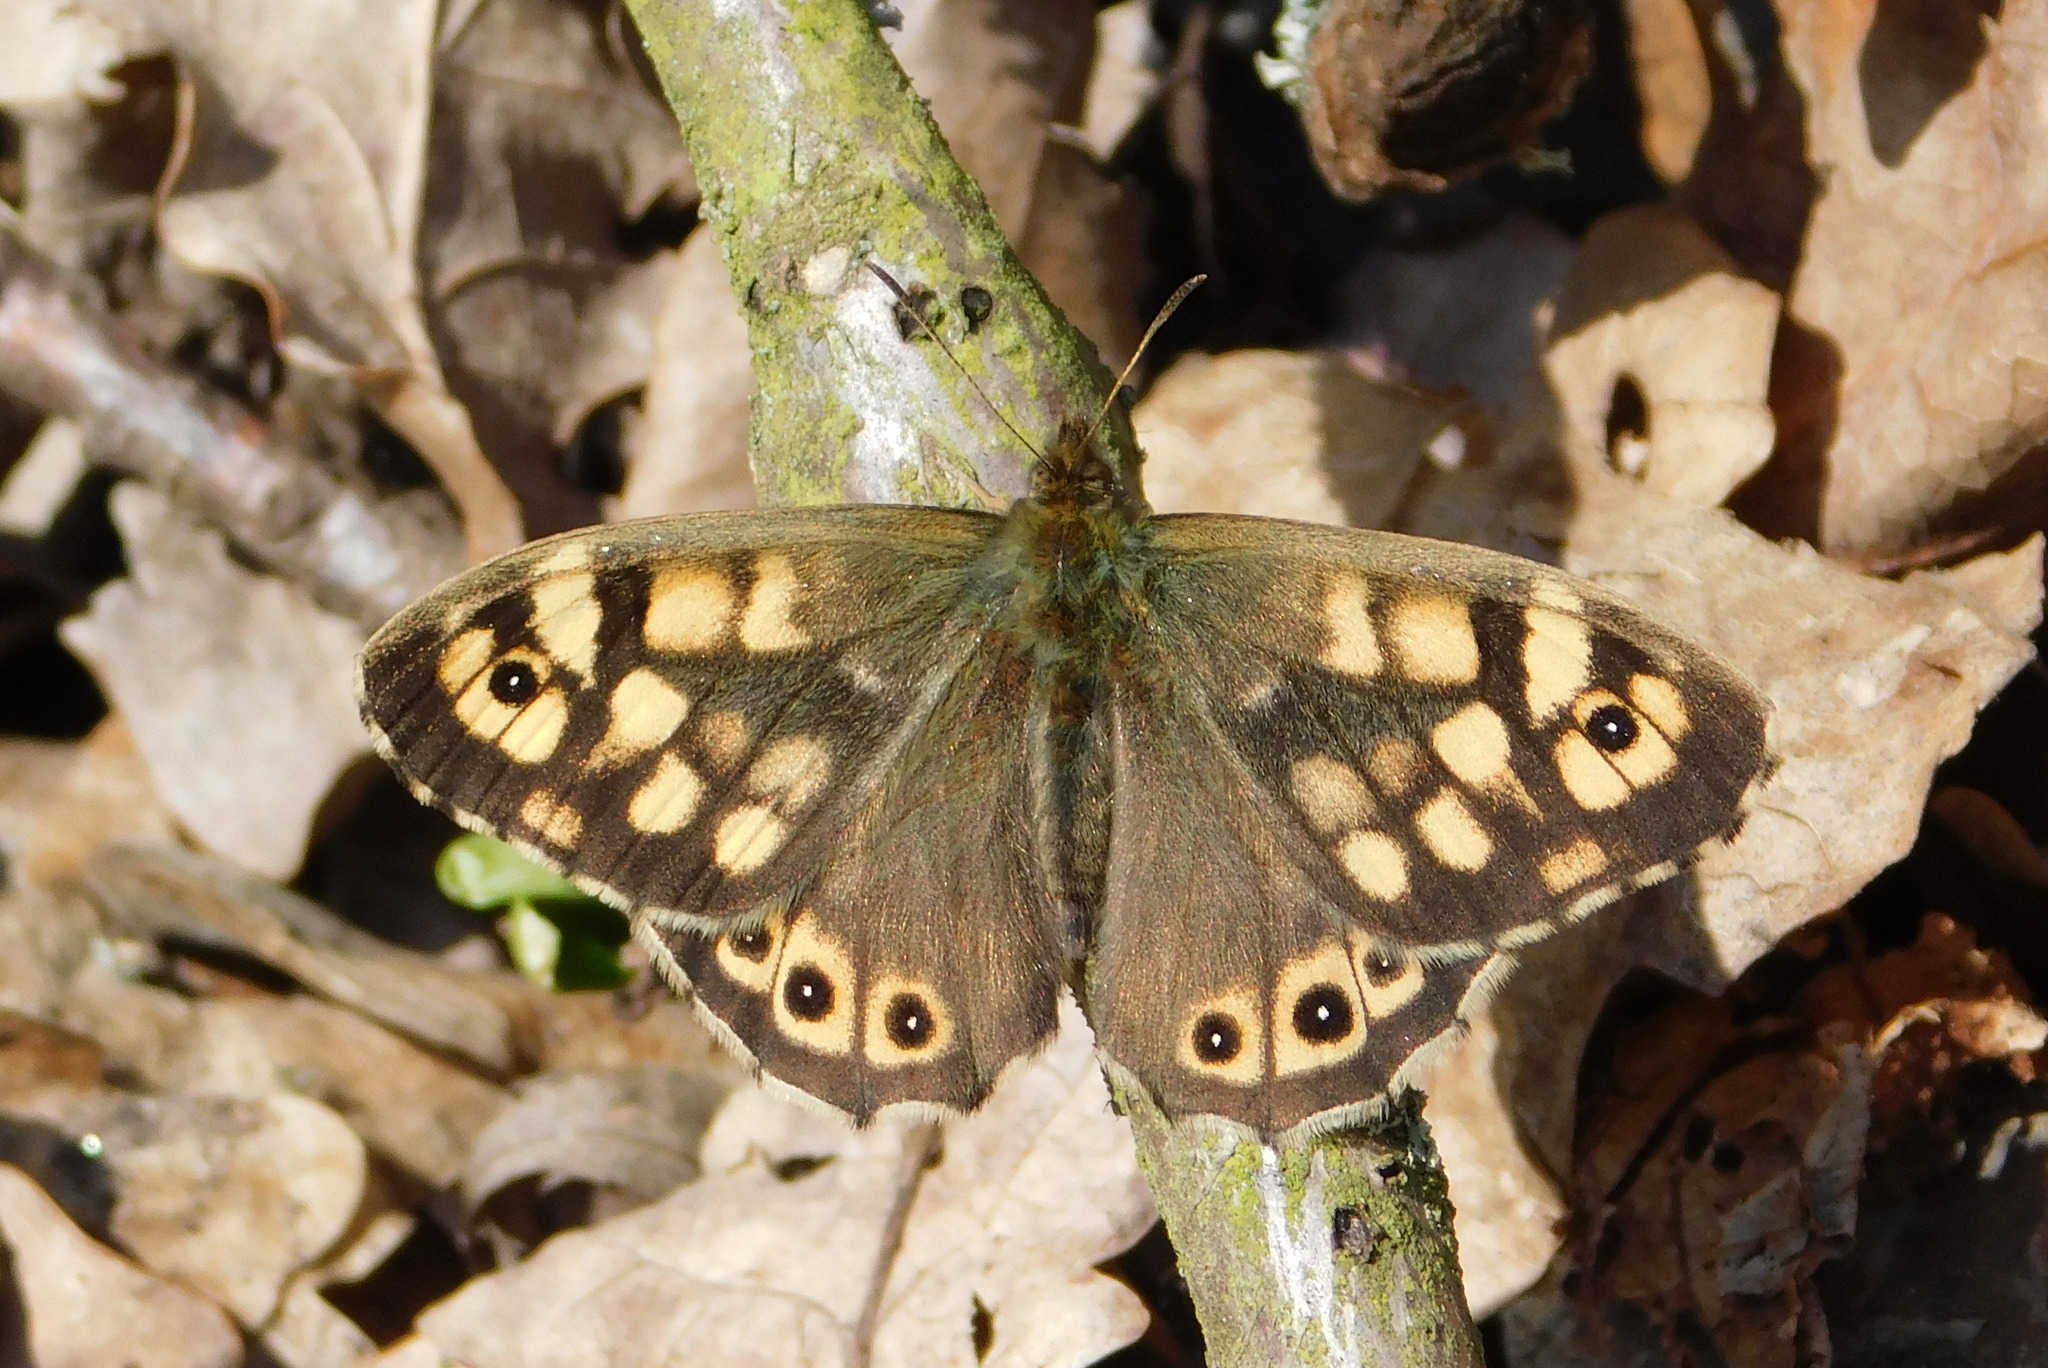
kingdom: Animalia
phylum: Arthropoda
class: Insecta
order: Lepidoptera
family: Nymphalidae
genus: Pararge
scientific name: Pararge aegeria
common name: Speckled wood
